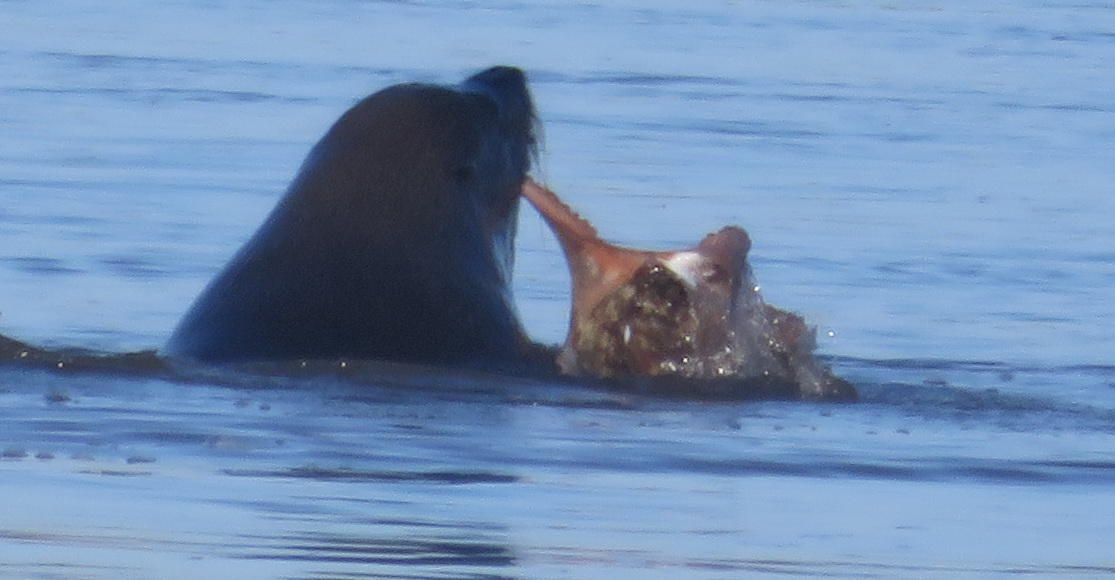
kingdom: Animalia
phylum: Chordata
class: Mammalia
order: Carnivora
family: Otariidae
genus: Arctocephalus
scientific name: Arctocephalus pusillus
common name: Brown fur seal
